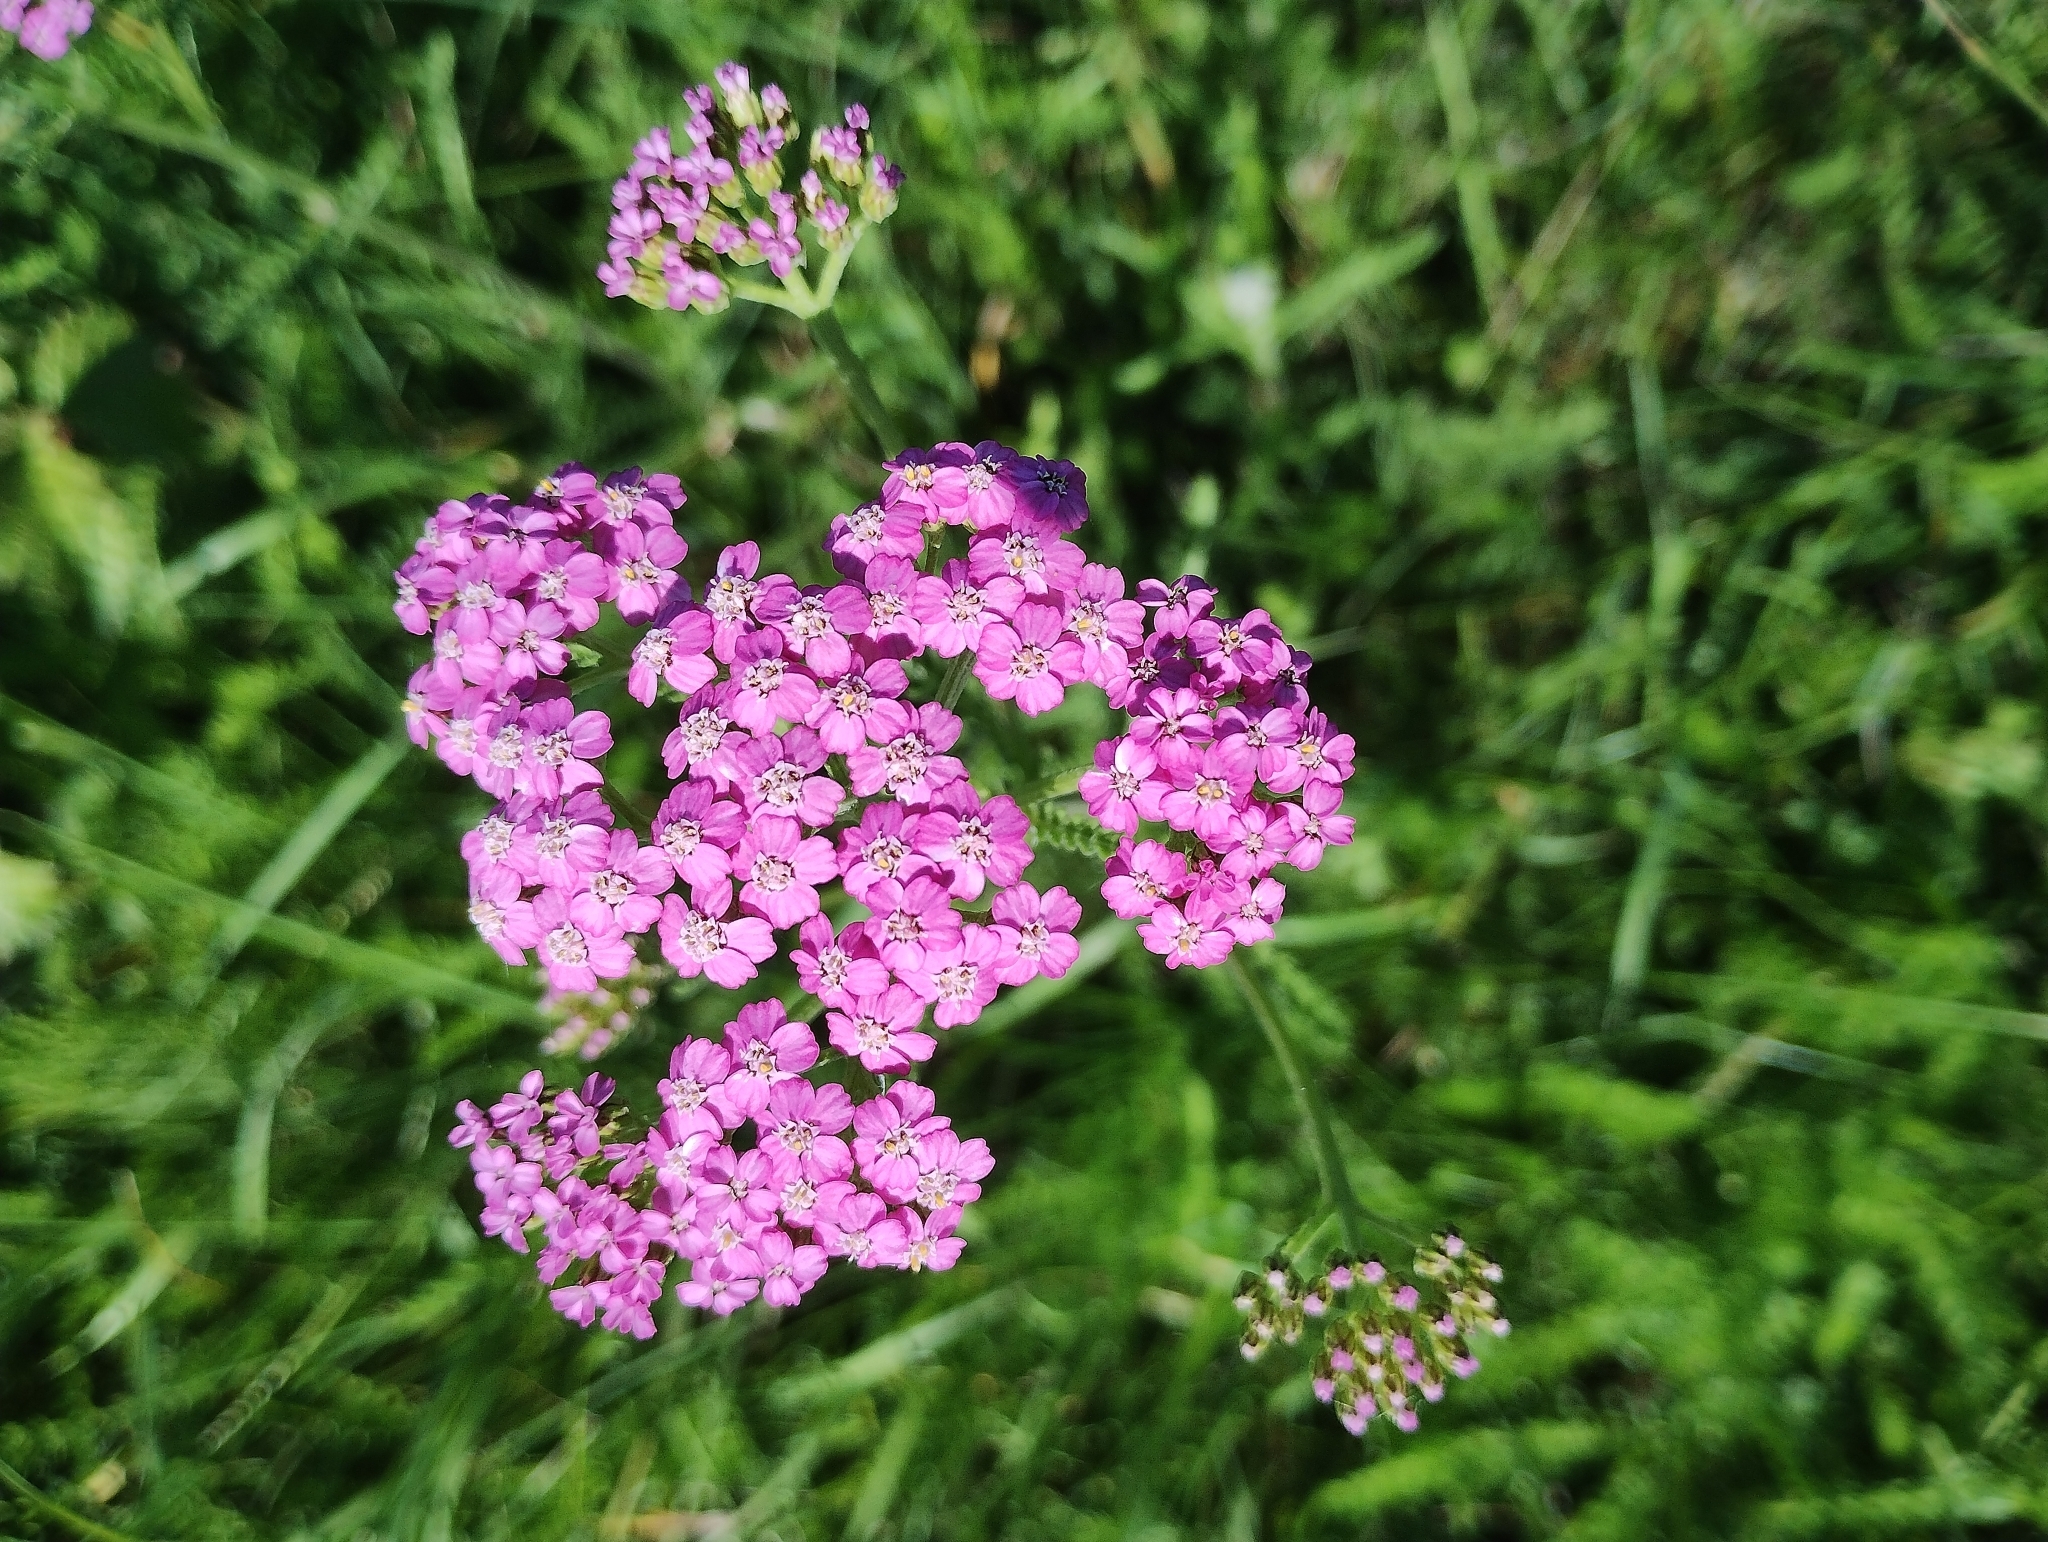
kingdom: Plantae
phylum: Tracheophyta
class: Magnoliopsida
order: Asterales
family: Asteraceae
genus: Achillea
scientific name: Achillea millefolium
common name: Yarrow
